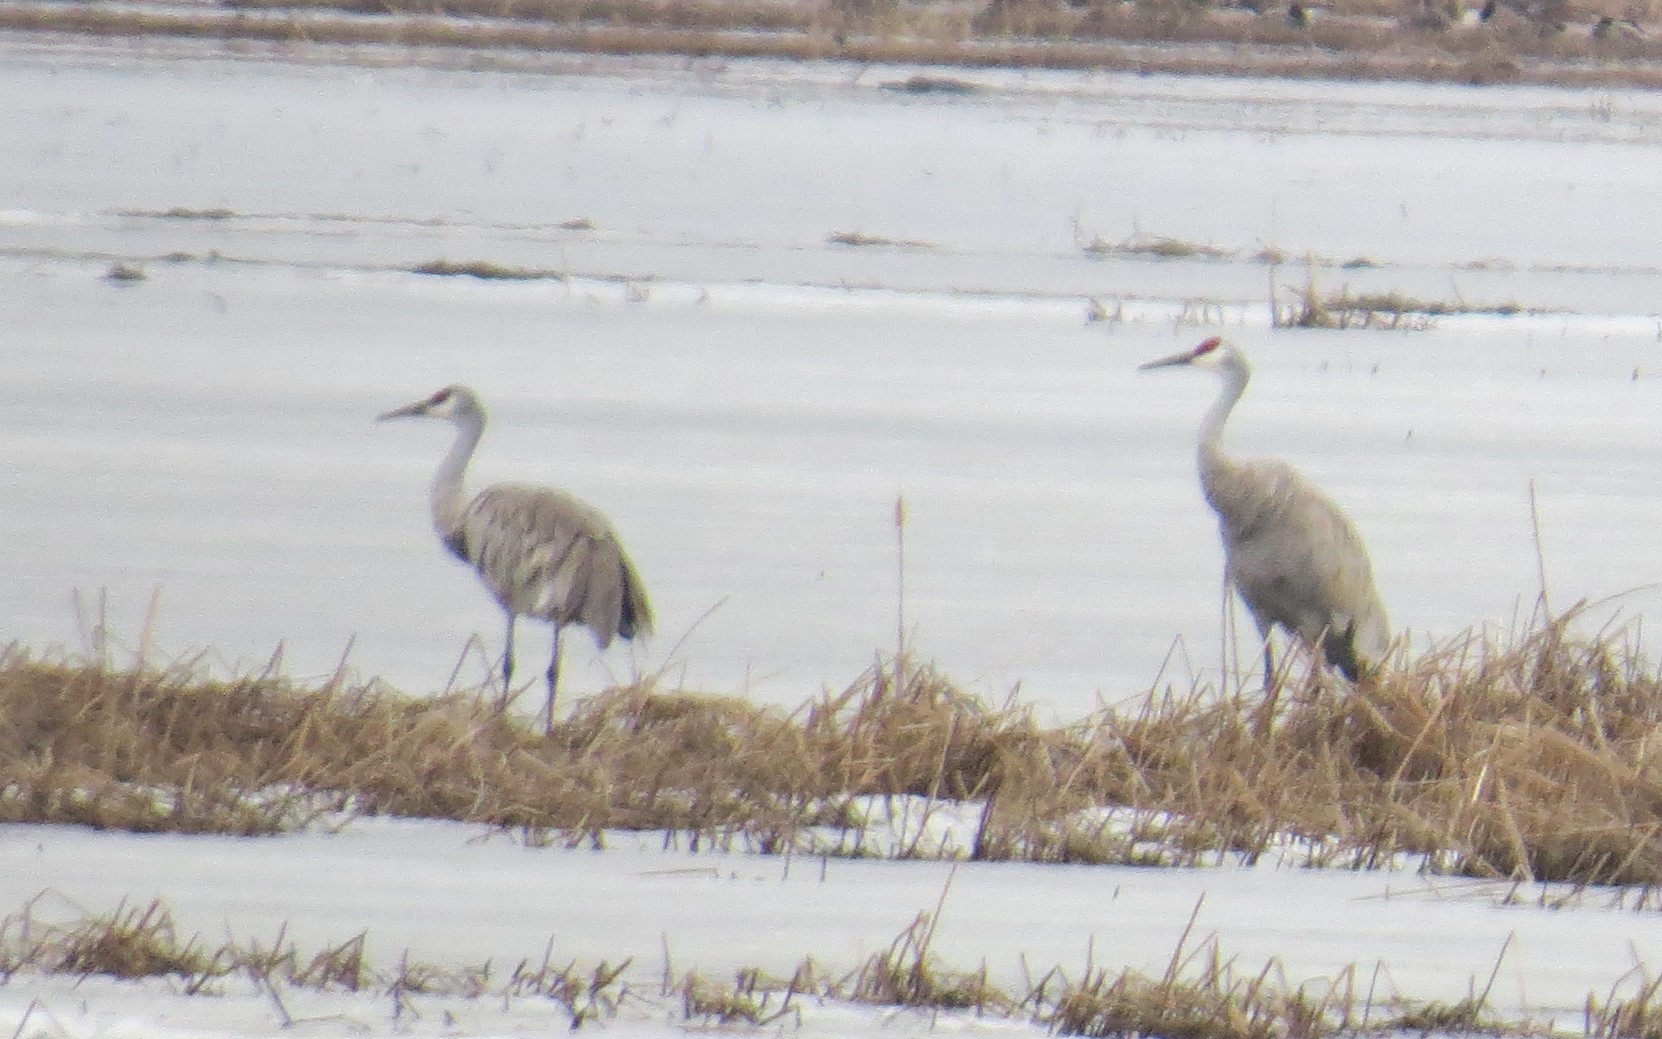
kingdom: Animalia
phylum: Chordata
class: Aves
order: Gruiformes
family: Gruidae
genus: Grus
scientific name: Grus canadensis
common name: Sandhill crane
